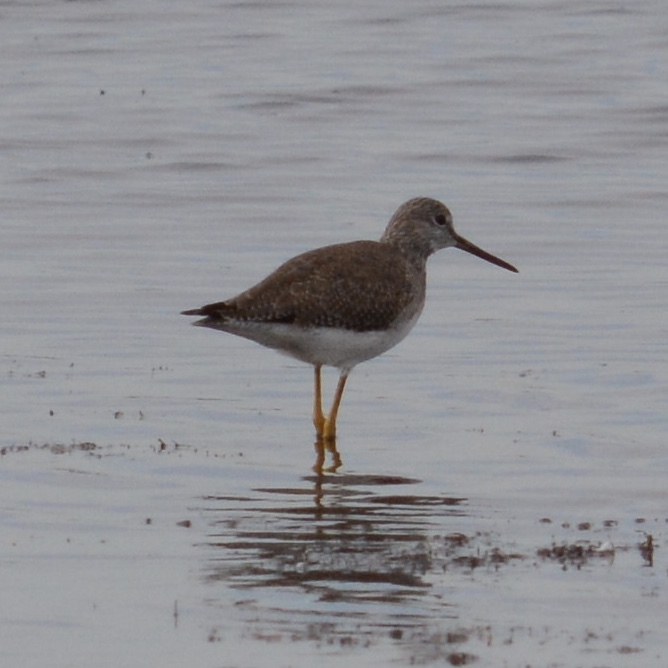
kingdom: Animalia
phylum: Chordata
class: Aves
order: Charadriiformes
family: Scolopacidae
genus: Tringa
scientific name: Tringa melanoleuca
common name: Greater yellowlegs
